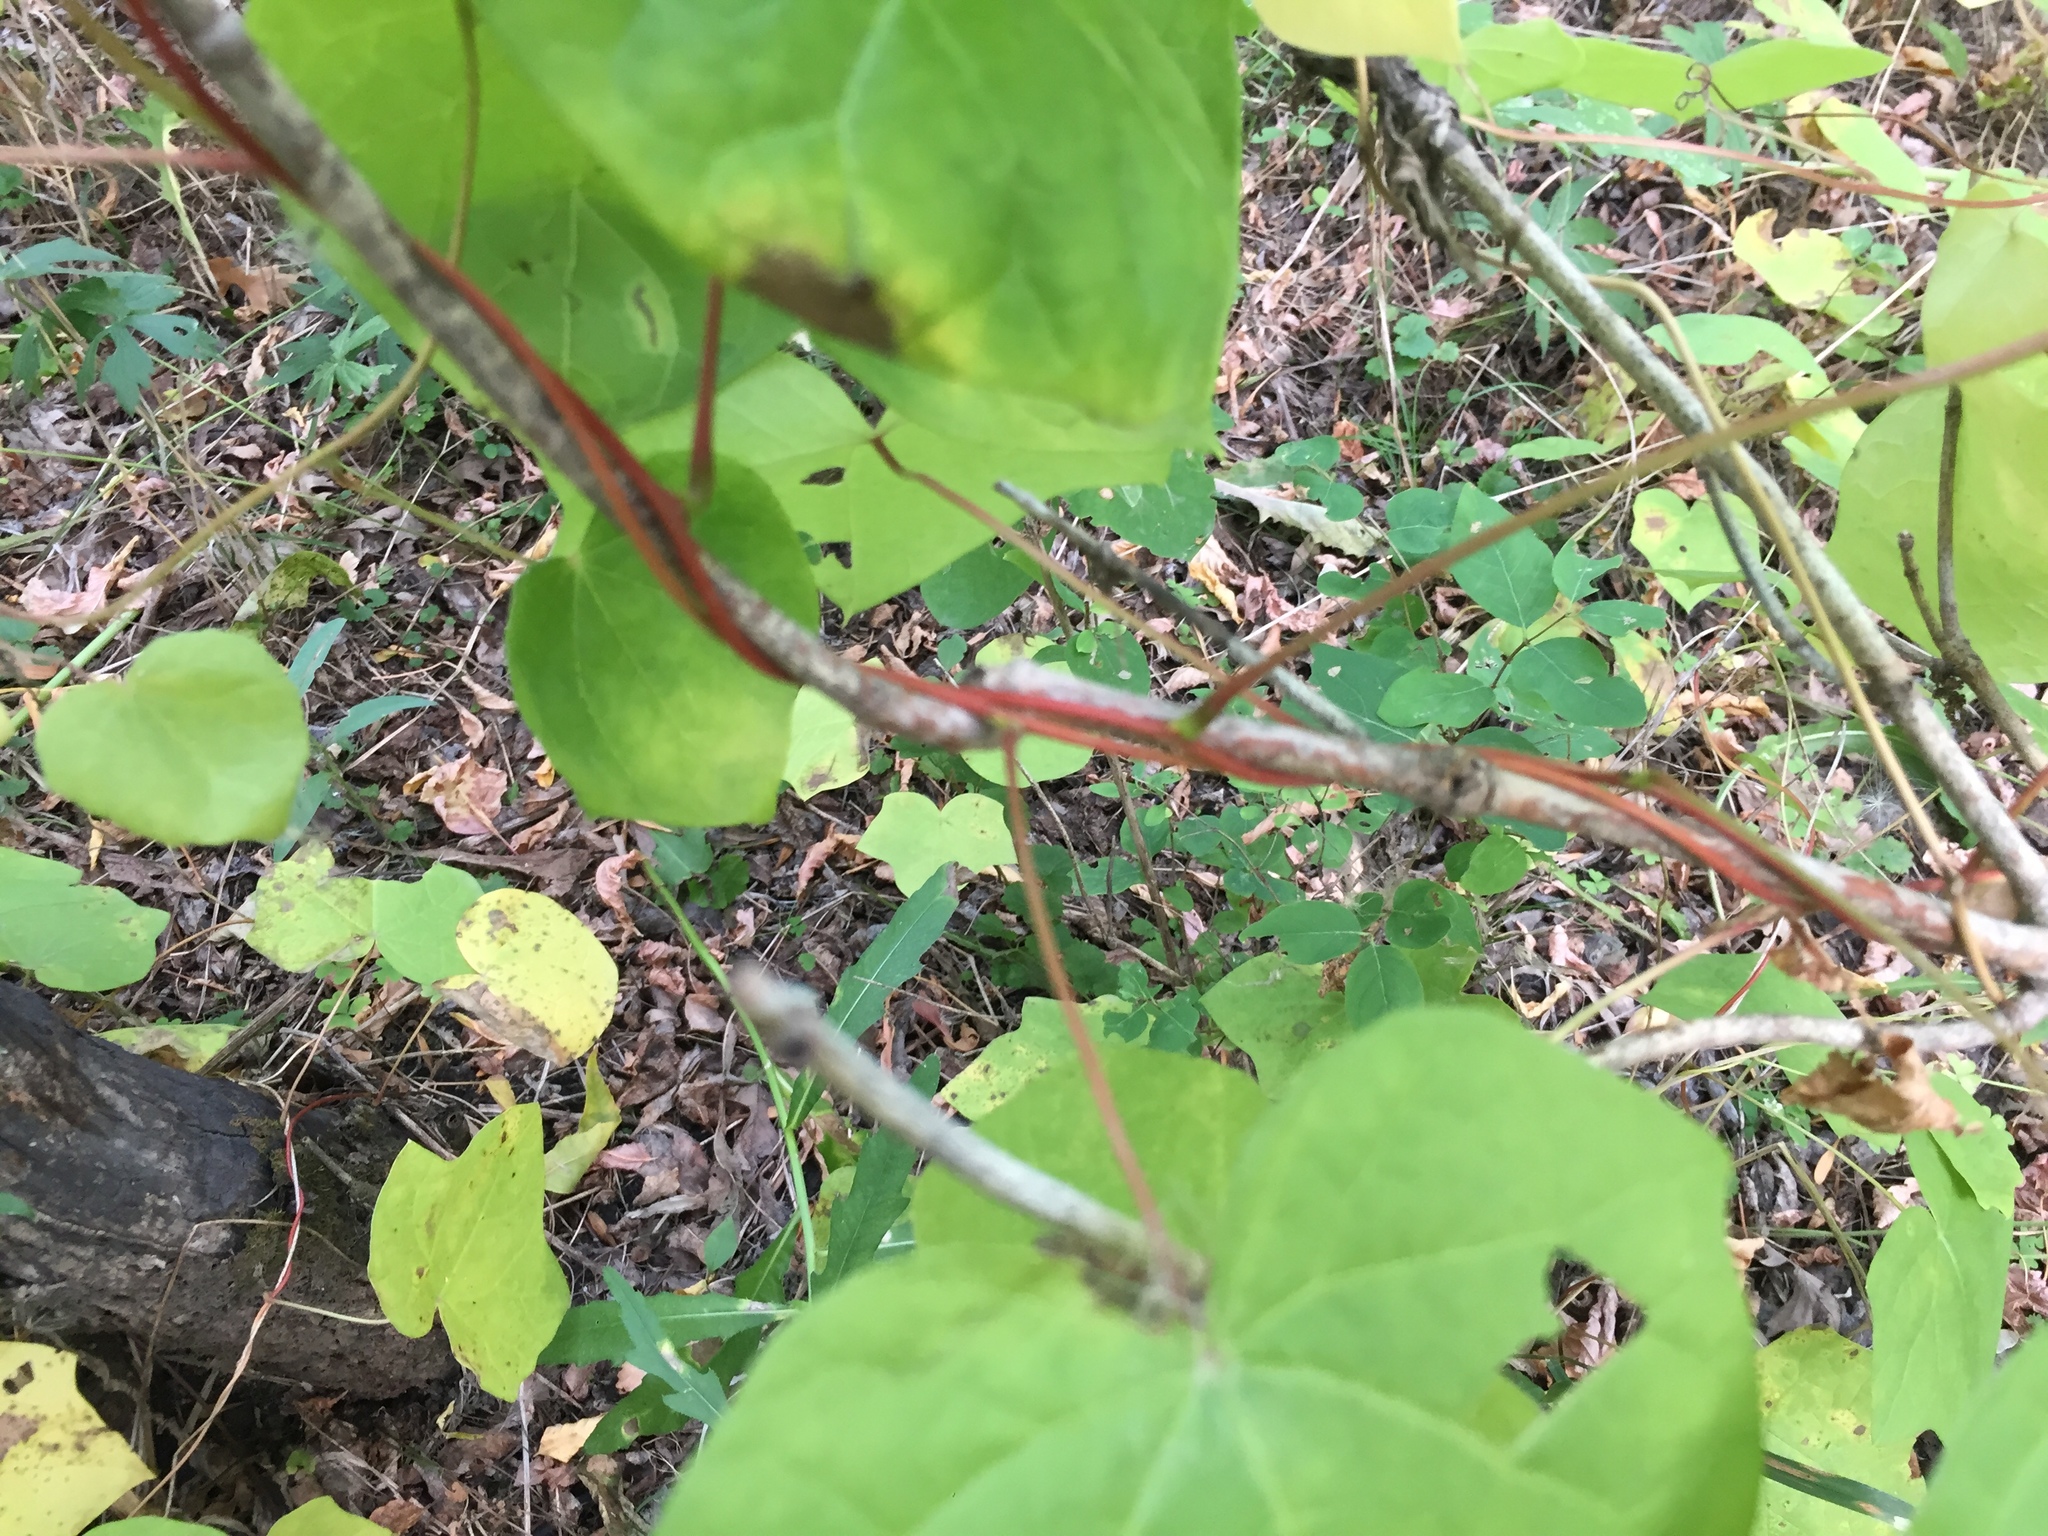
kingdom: Plantae
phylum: Tracheophyta
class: Magnoliopsida
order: Ranunculales
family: Menispermaceae
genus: Menispermum
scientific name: Menispermum canadense
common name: Moonseed
